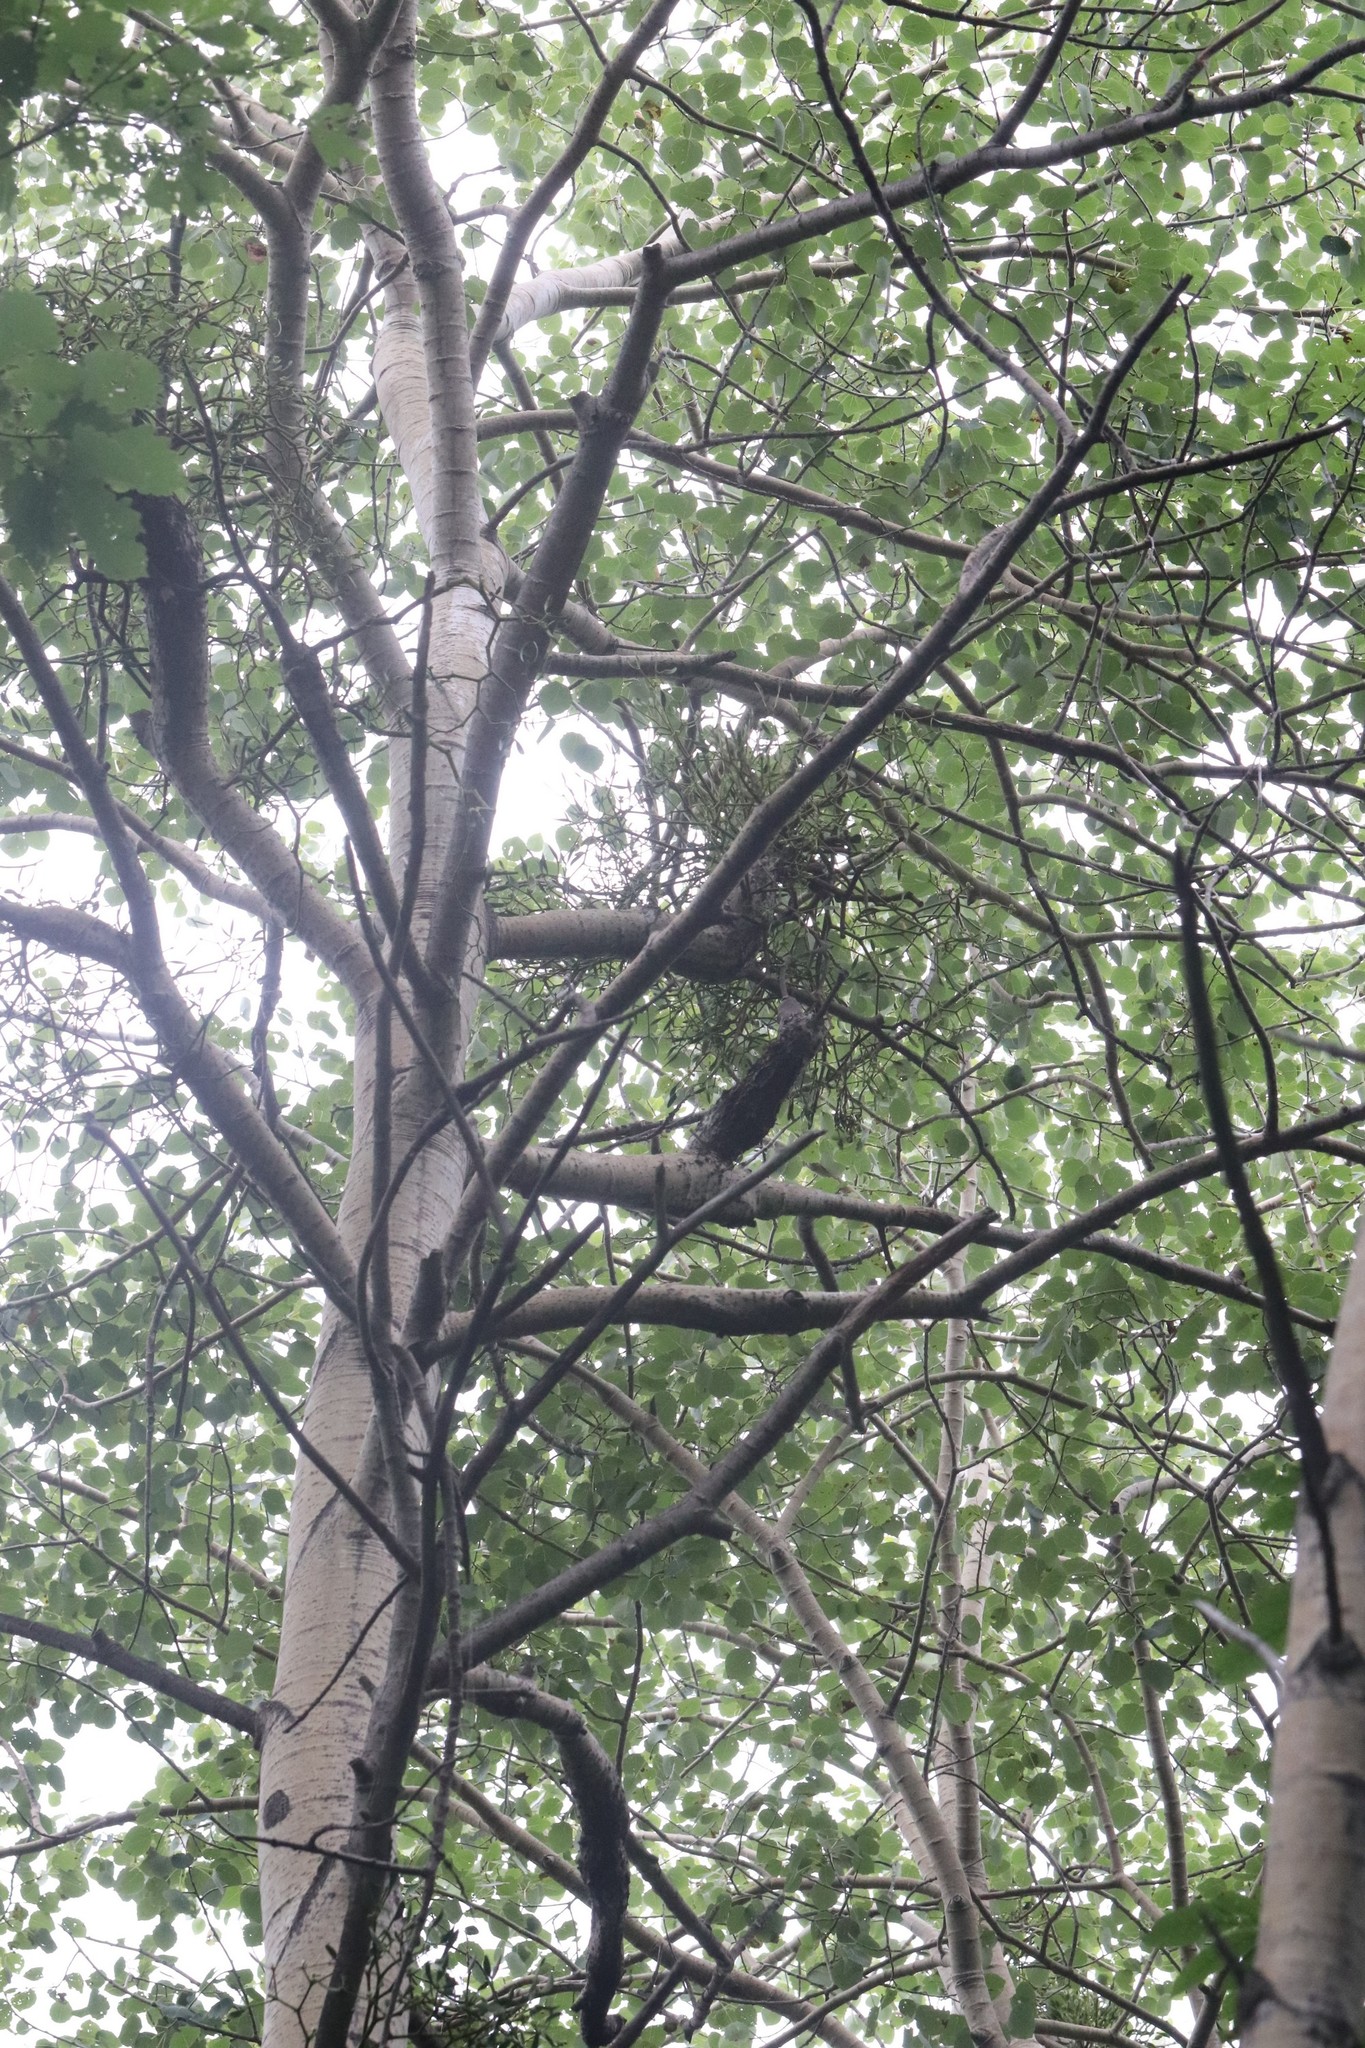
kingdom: Plantae
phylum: Tracheophyta
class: Magnoliopsida
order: Santalales
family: Viscaceae
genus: Viscum
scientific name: Viscum coloratum
